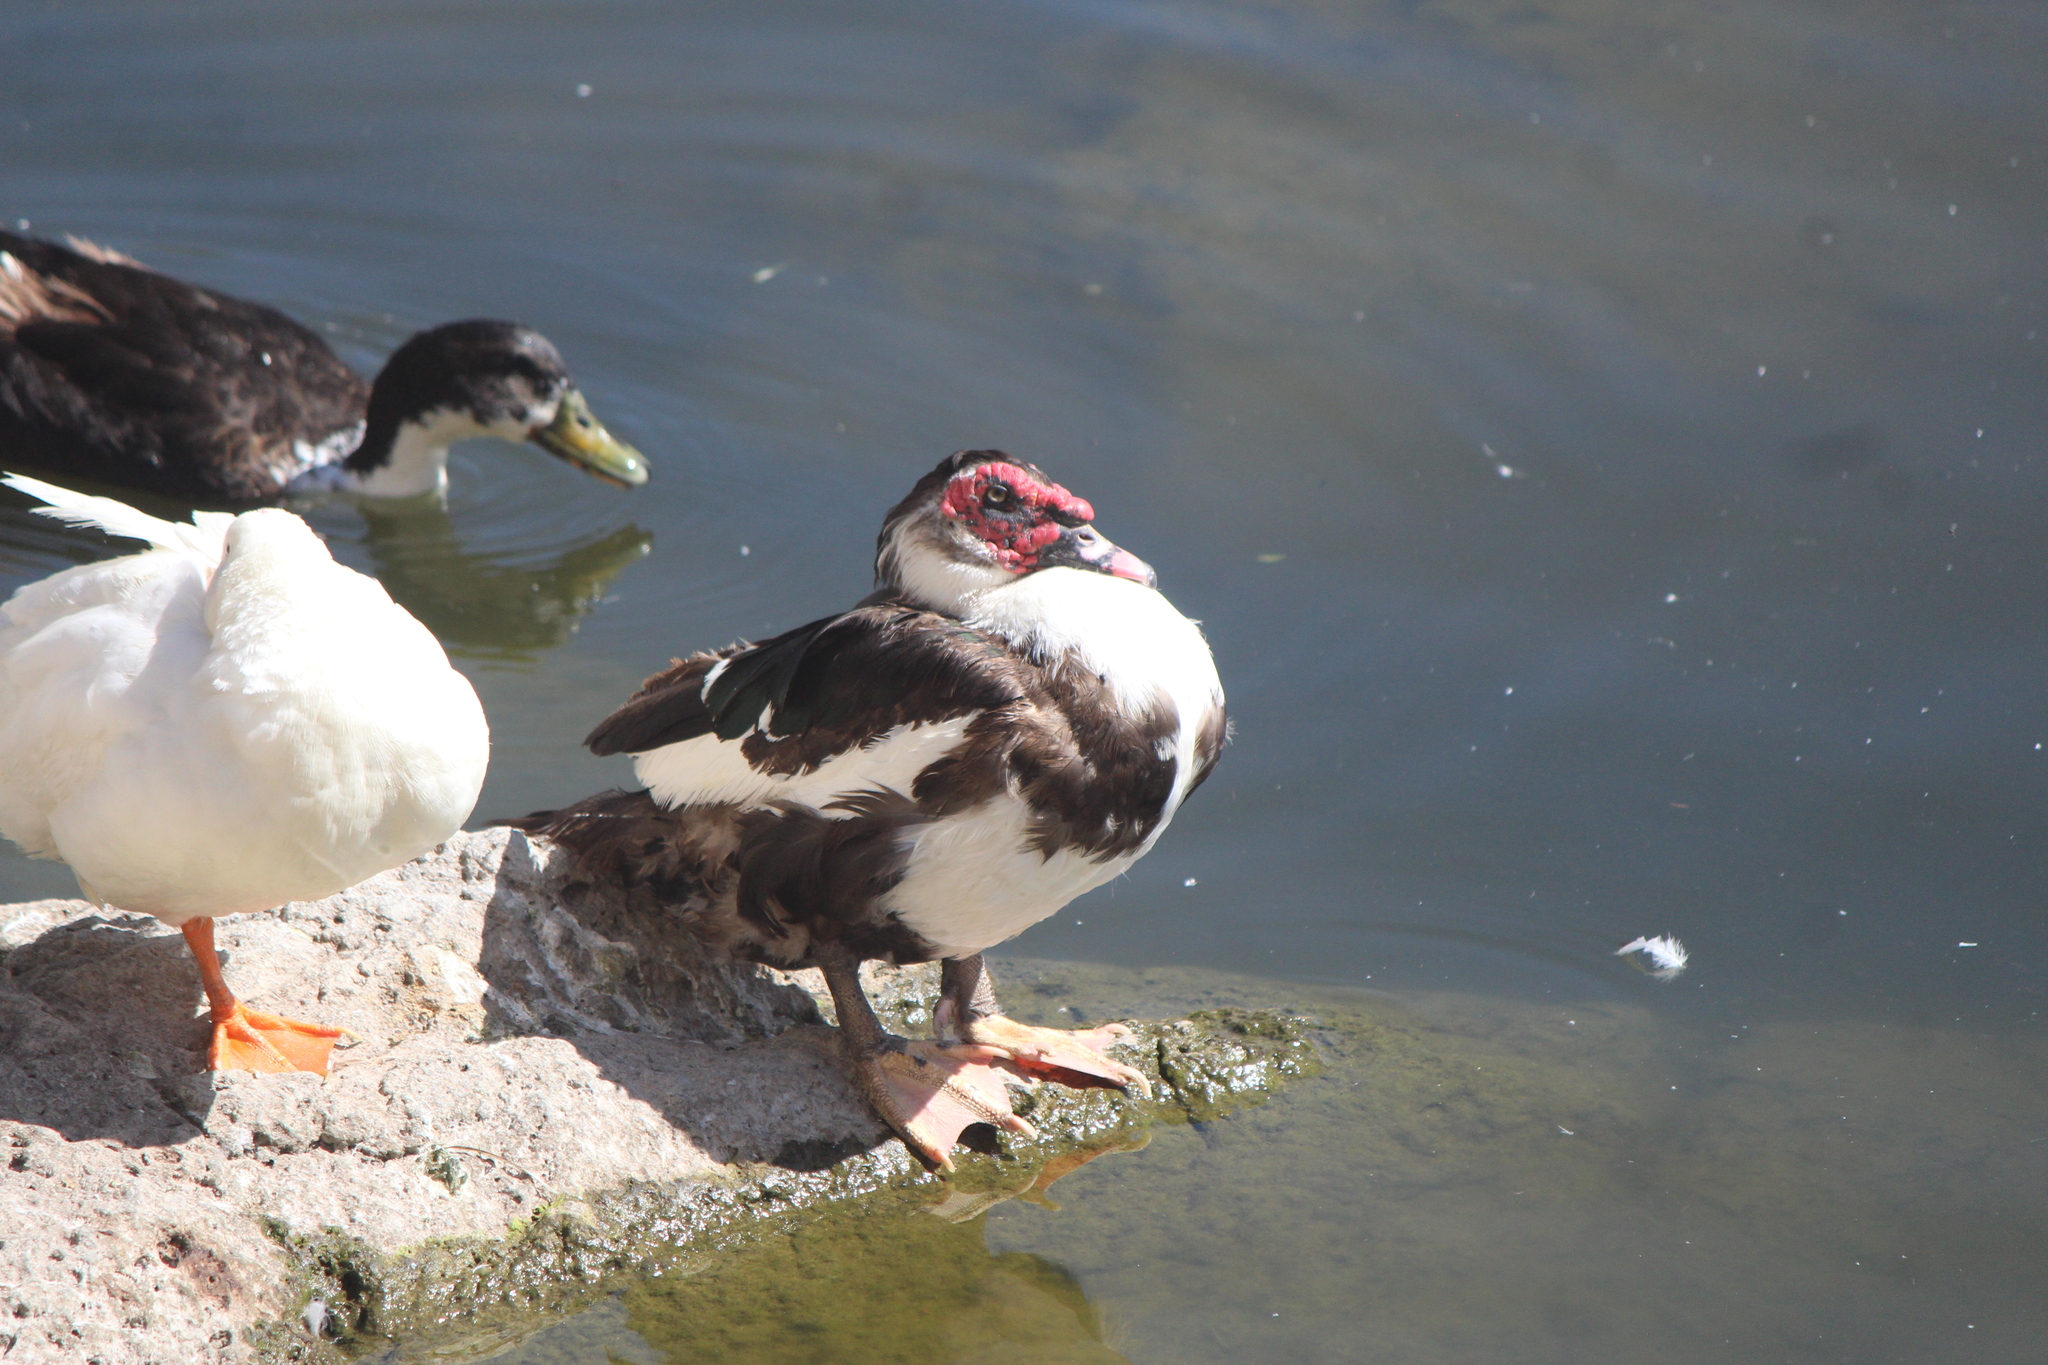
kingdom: Animalia
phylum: Chordata
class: Aves
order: Anseriformes
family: Anatidae
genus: Cairina
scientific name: Cairina moschata
